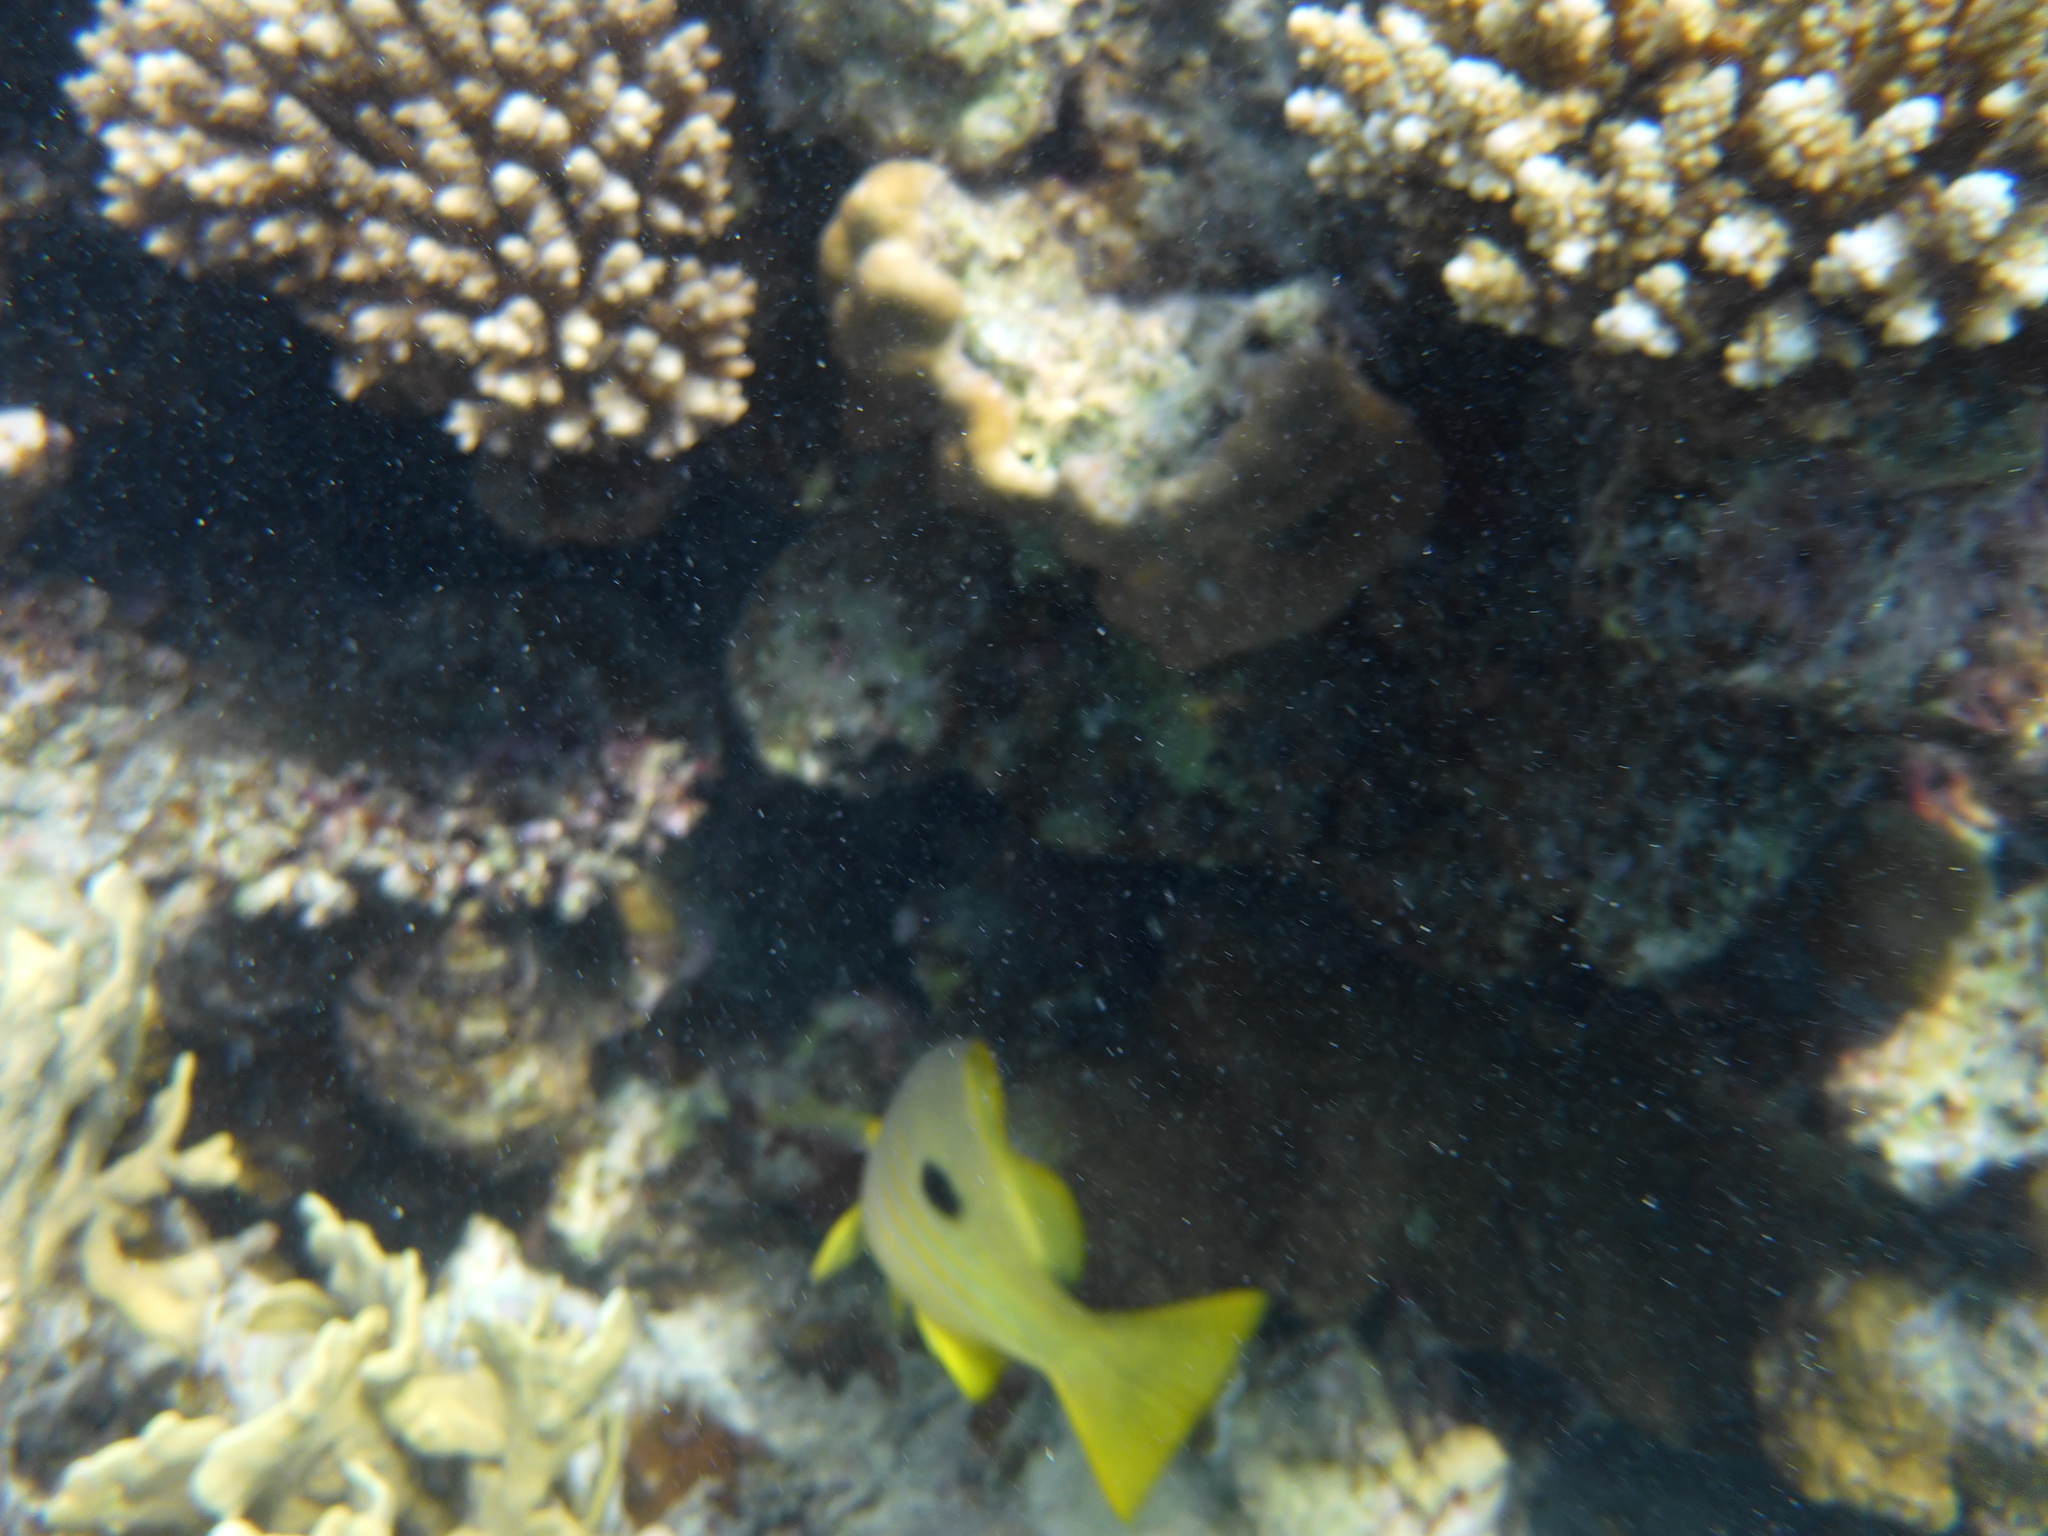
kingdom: Animalia
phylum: Chordata
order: Perciformes
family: Lutjanidae
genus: Lutjanus
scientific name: Lutjanus fulviflamma
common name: Blackspot snapper
